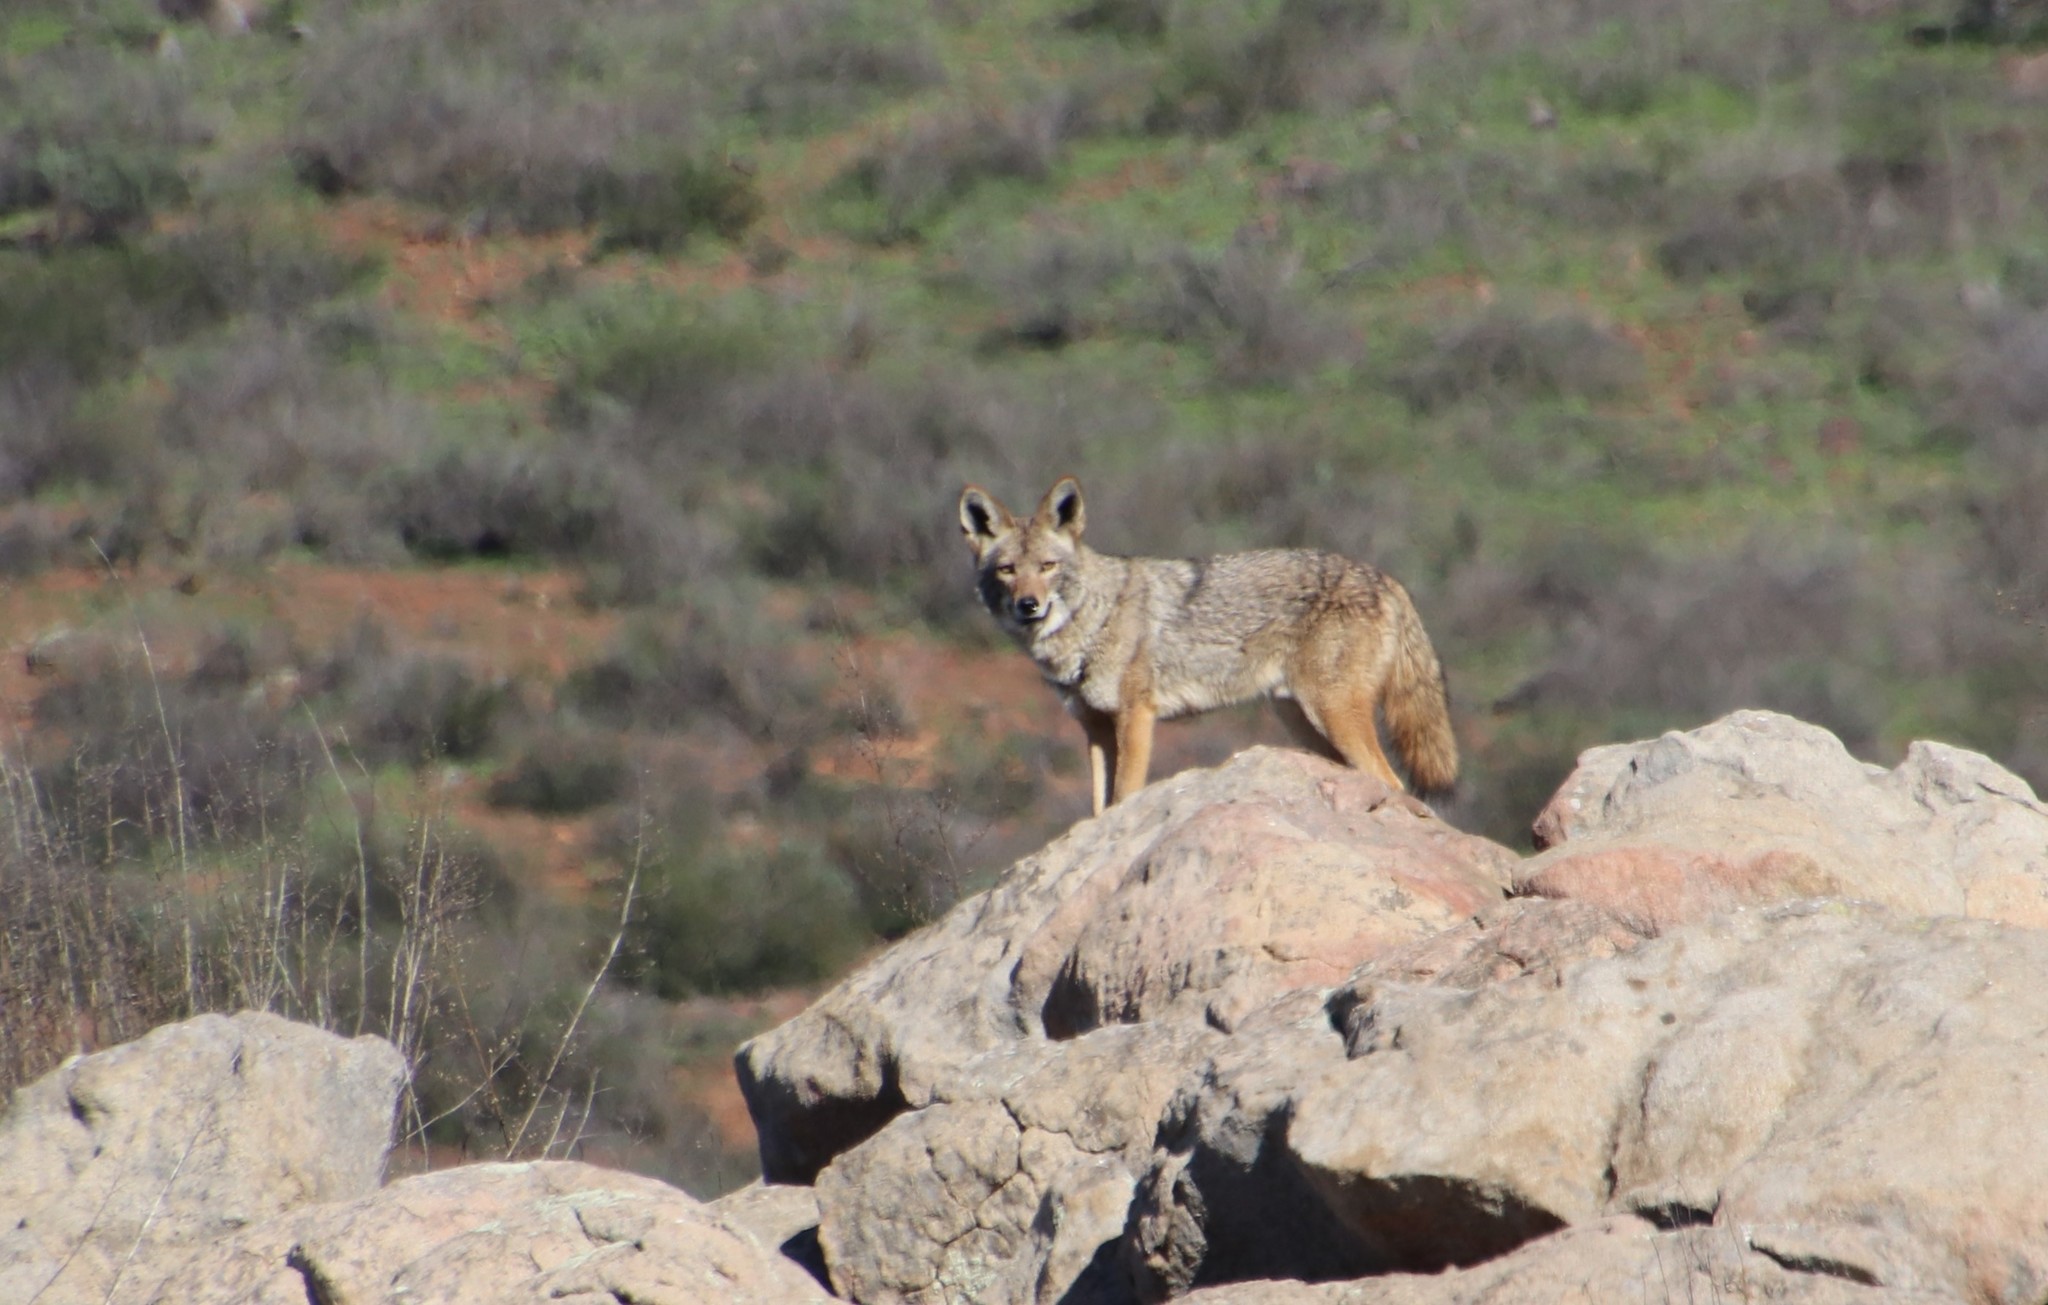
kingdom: Animalia
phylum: Chordata
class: Mammalia
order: Carnivora
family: Canidae
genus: Canis
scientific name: Canis latrans
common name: Coyote
